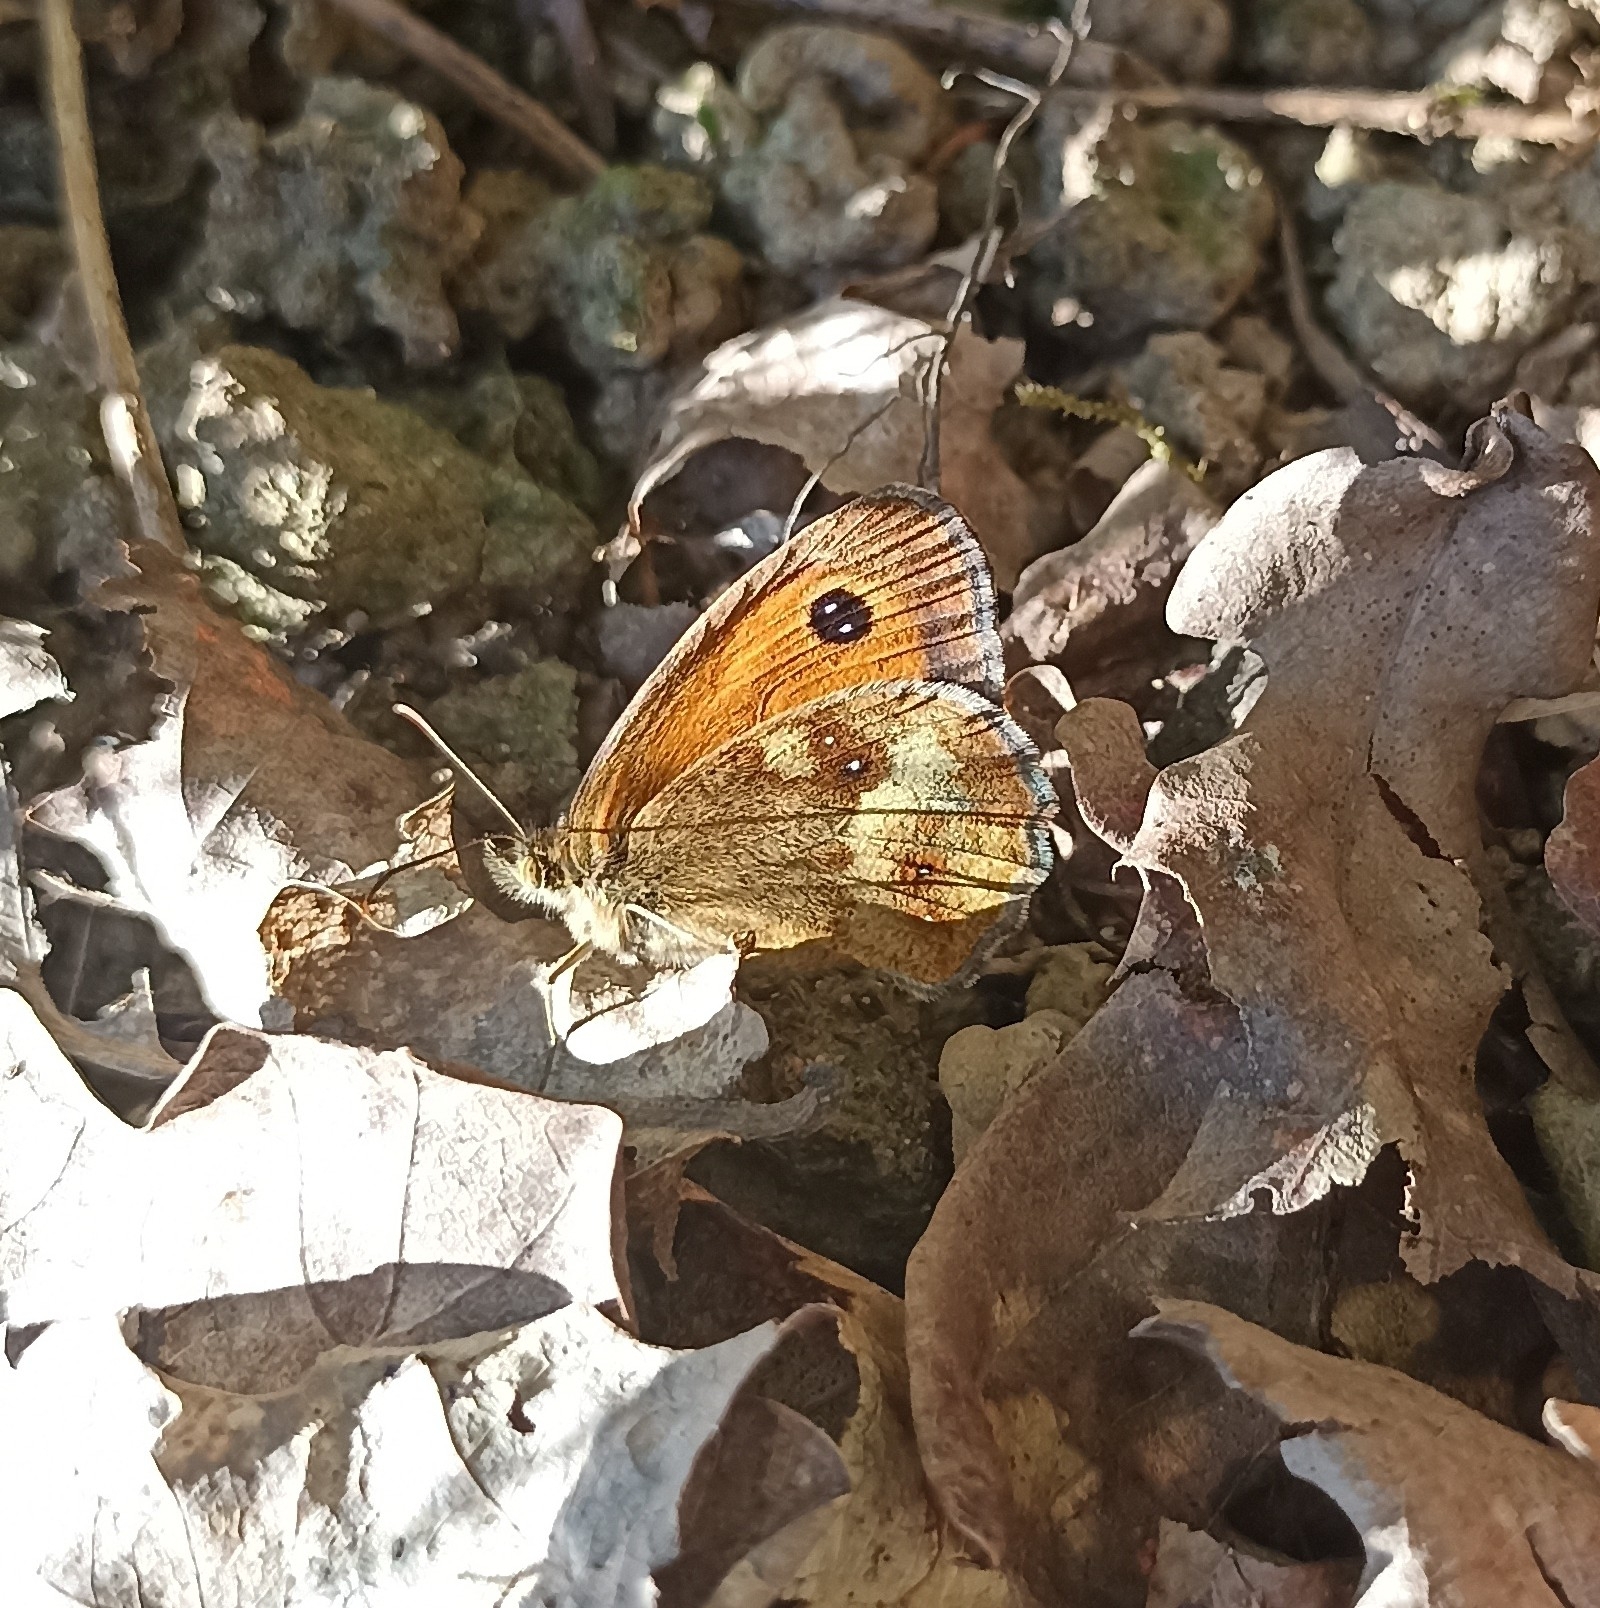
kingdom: Animalia
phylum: Arthropoda
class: Insecta
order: Lepidoptera
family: Nymphalidae
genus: Pyronia
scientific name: Pyronia tithonus
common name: Gatekeeper
